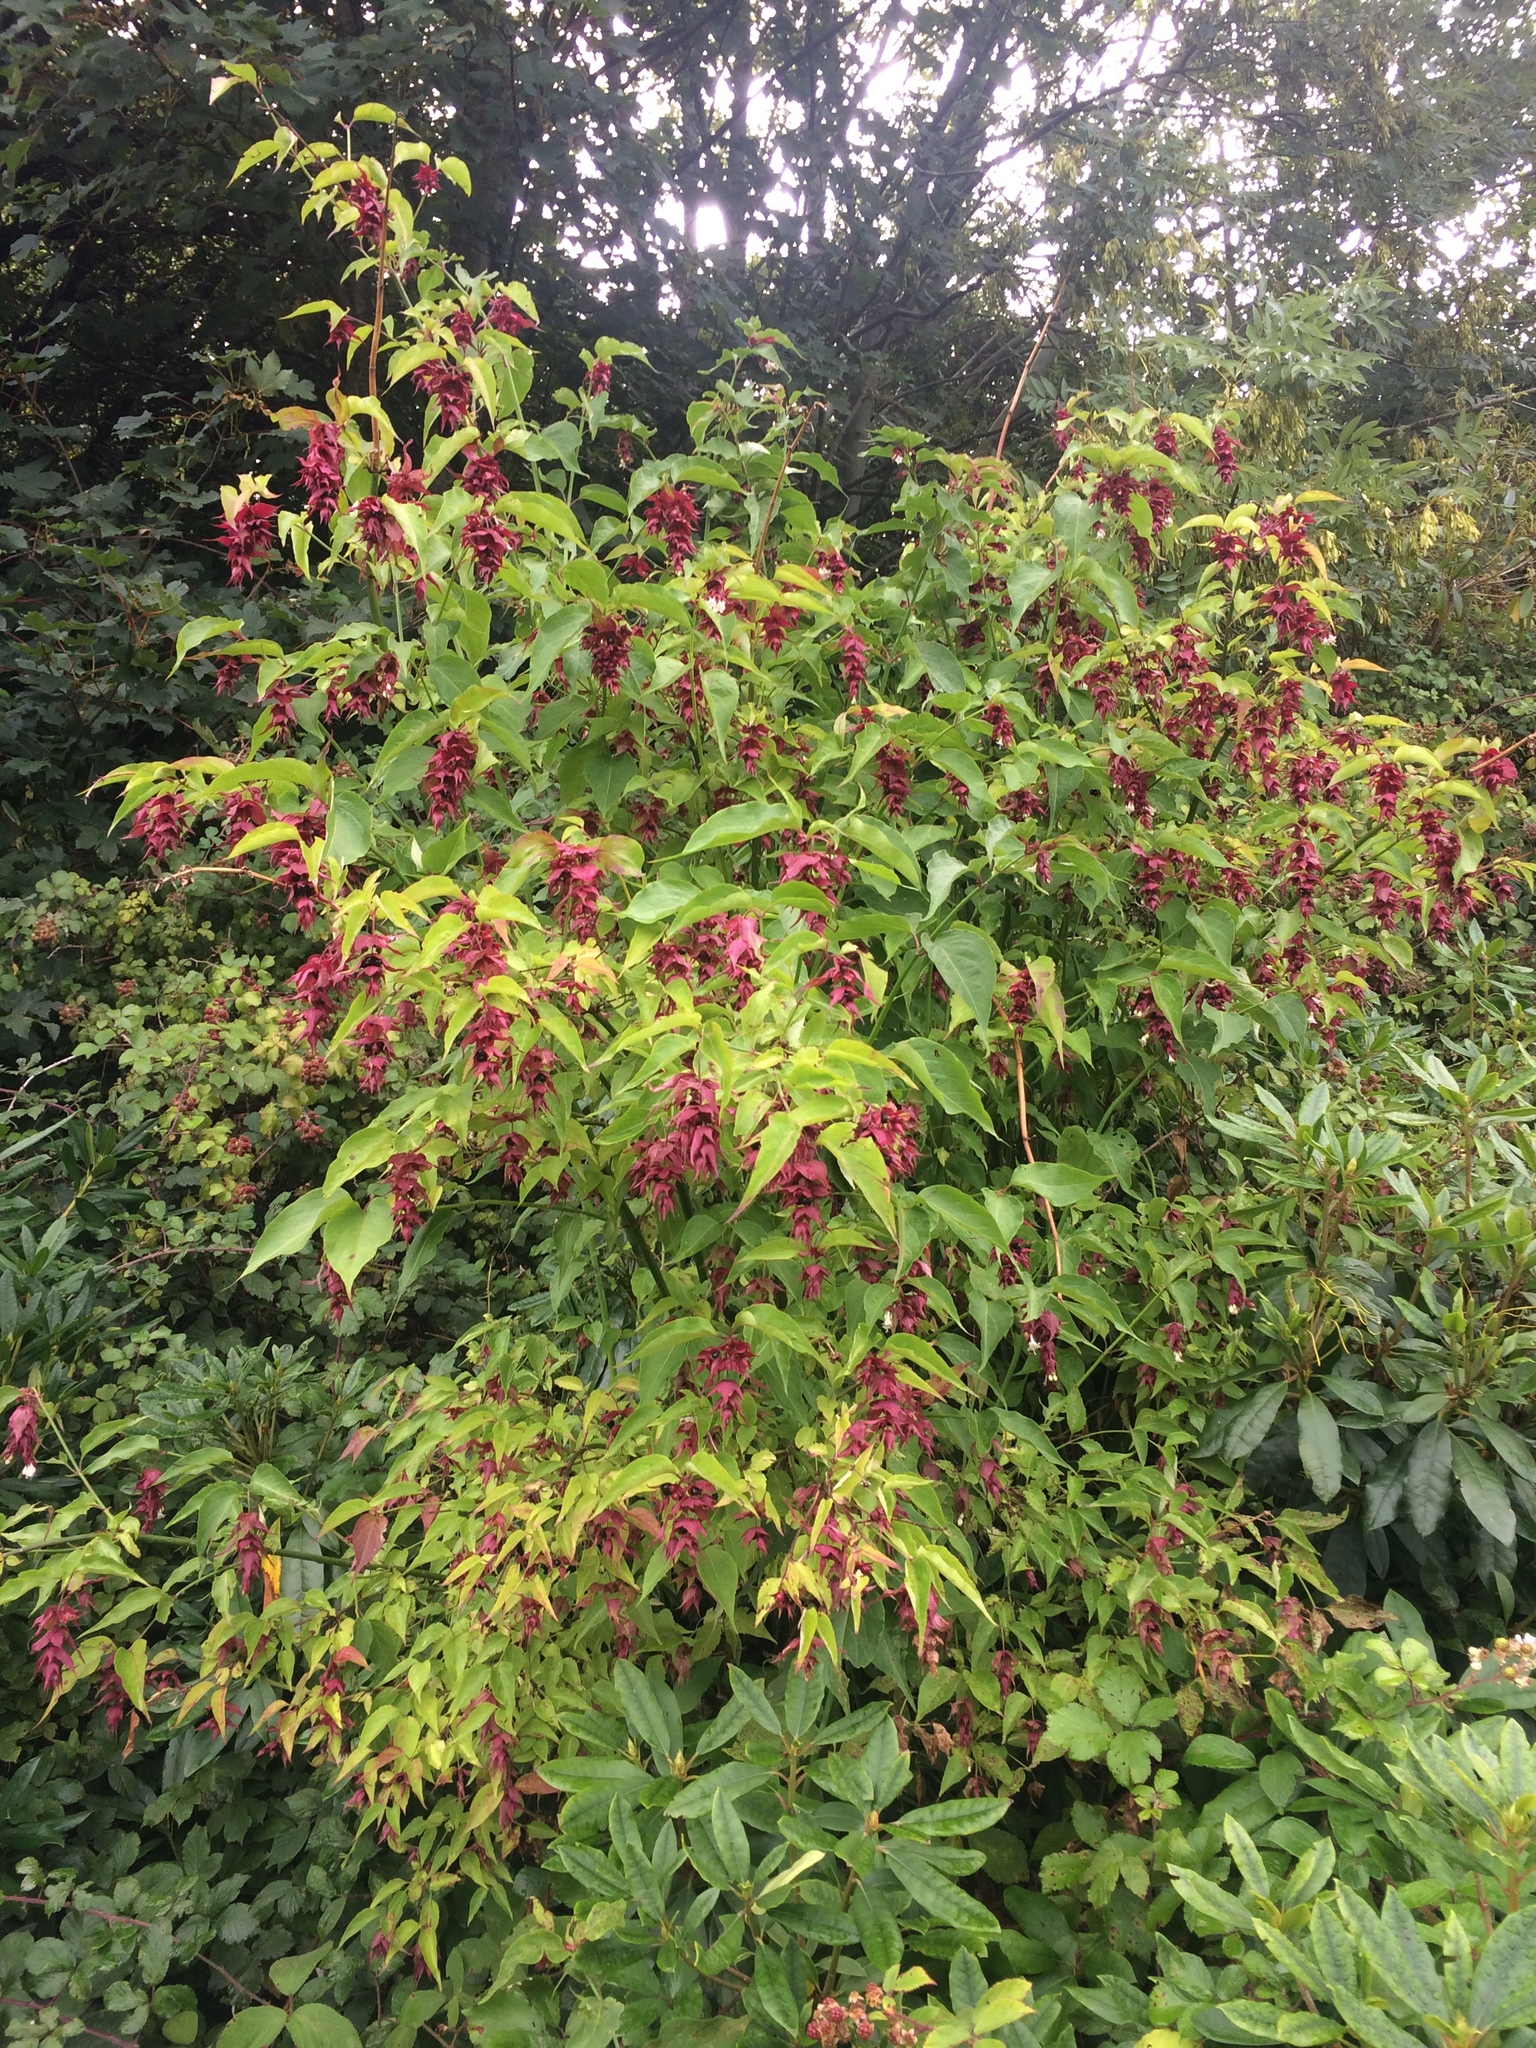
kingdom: Plantae
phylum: Tracheophyta
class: Magnoliopsida
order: Dipsacales
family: Caprifoliaceae
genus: Leycesteria
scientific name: Leycesteria formosa
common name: Himalayan honeysuckle
